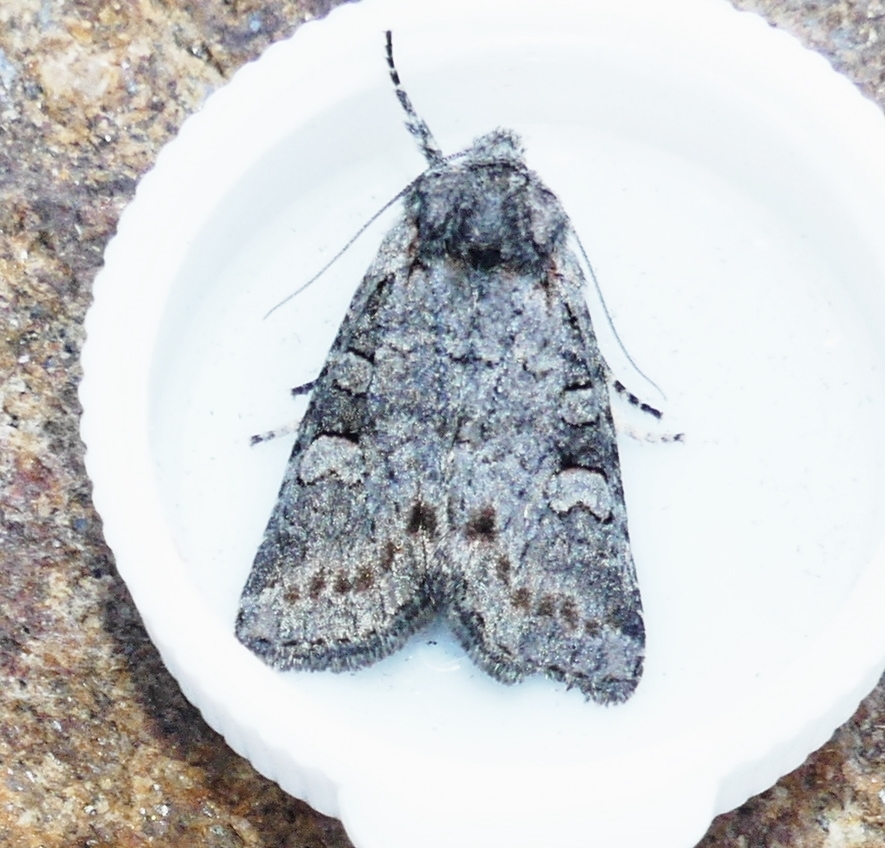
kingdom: Animalia
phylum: Arthropoda
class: Insecta
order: Lepidoptera
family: Noctuidae
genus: Brachylomia
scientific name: Brachylomia algens
